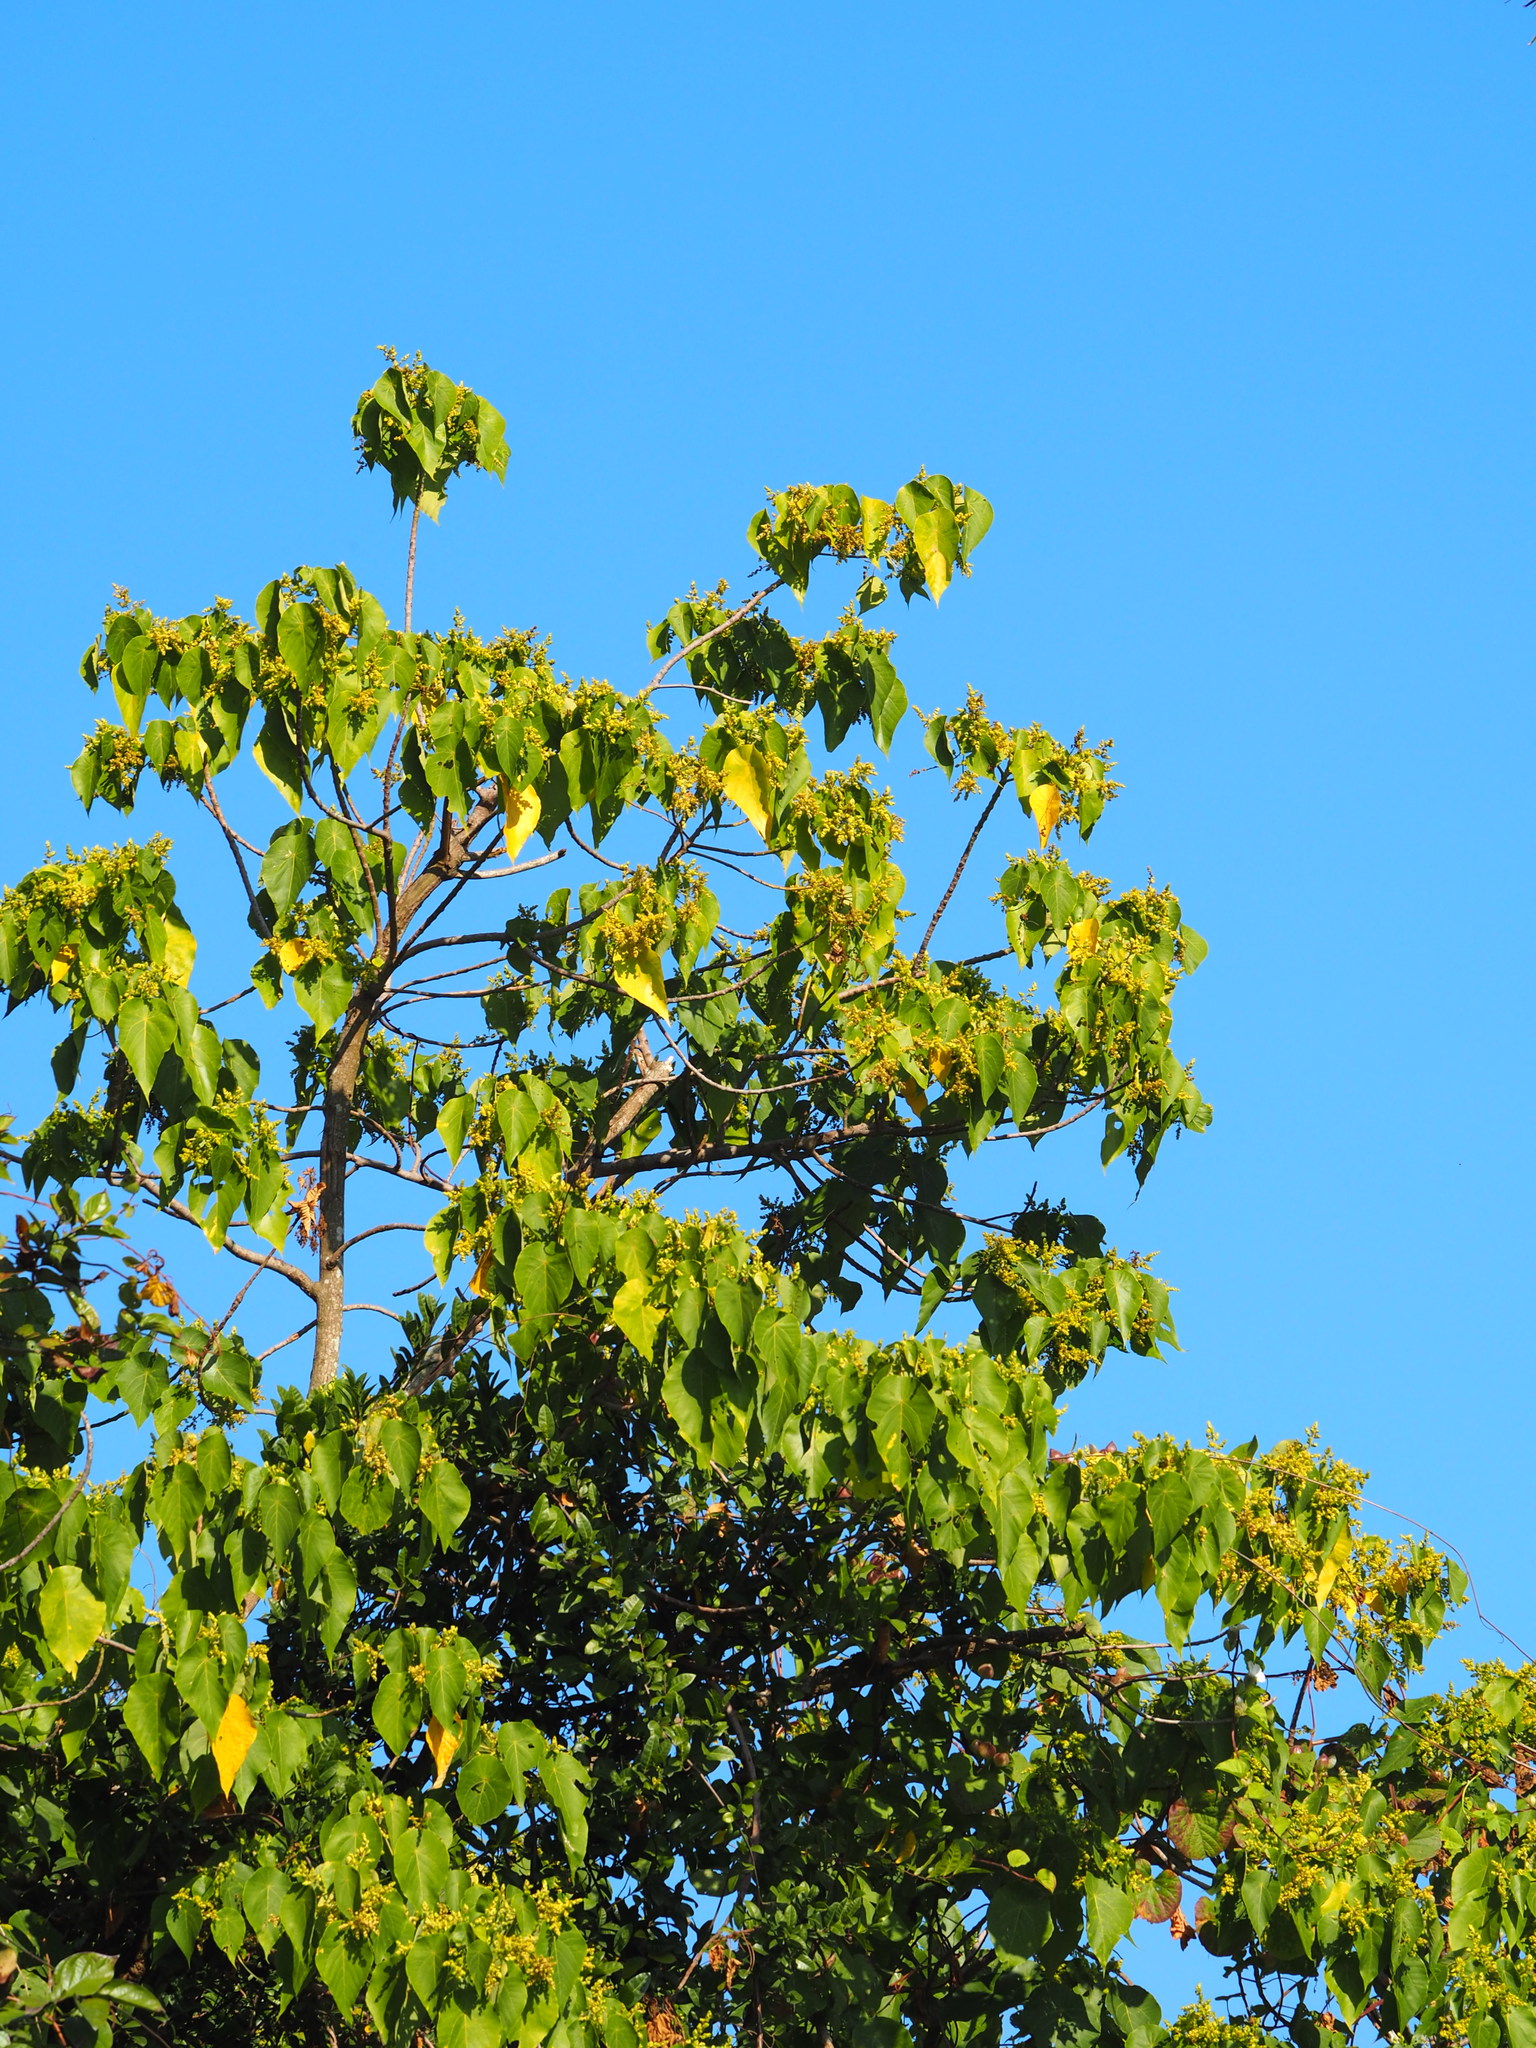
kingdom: Plantae
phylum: Tracheophyta
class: Magnoliopsida
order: Malpighiales
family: Euphorbiaceae
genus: Macaranga
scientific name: Macaranga tanarius
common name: Parasol leaf tree
